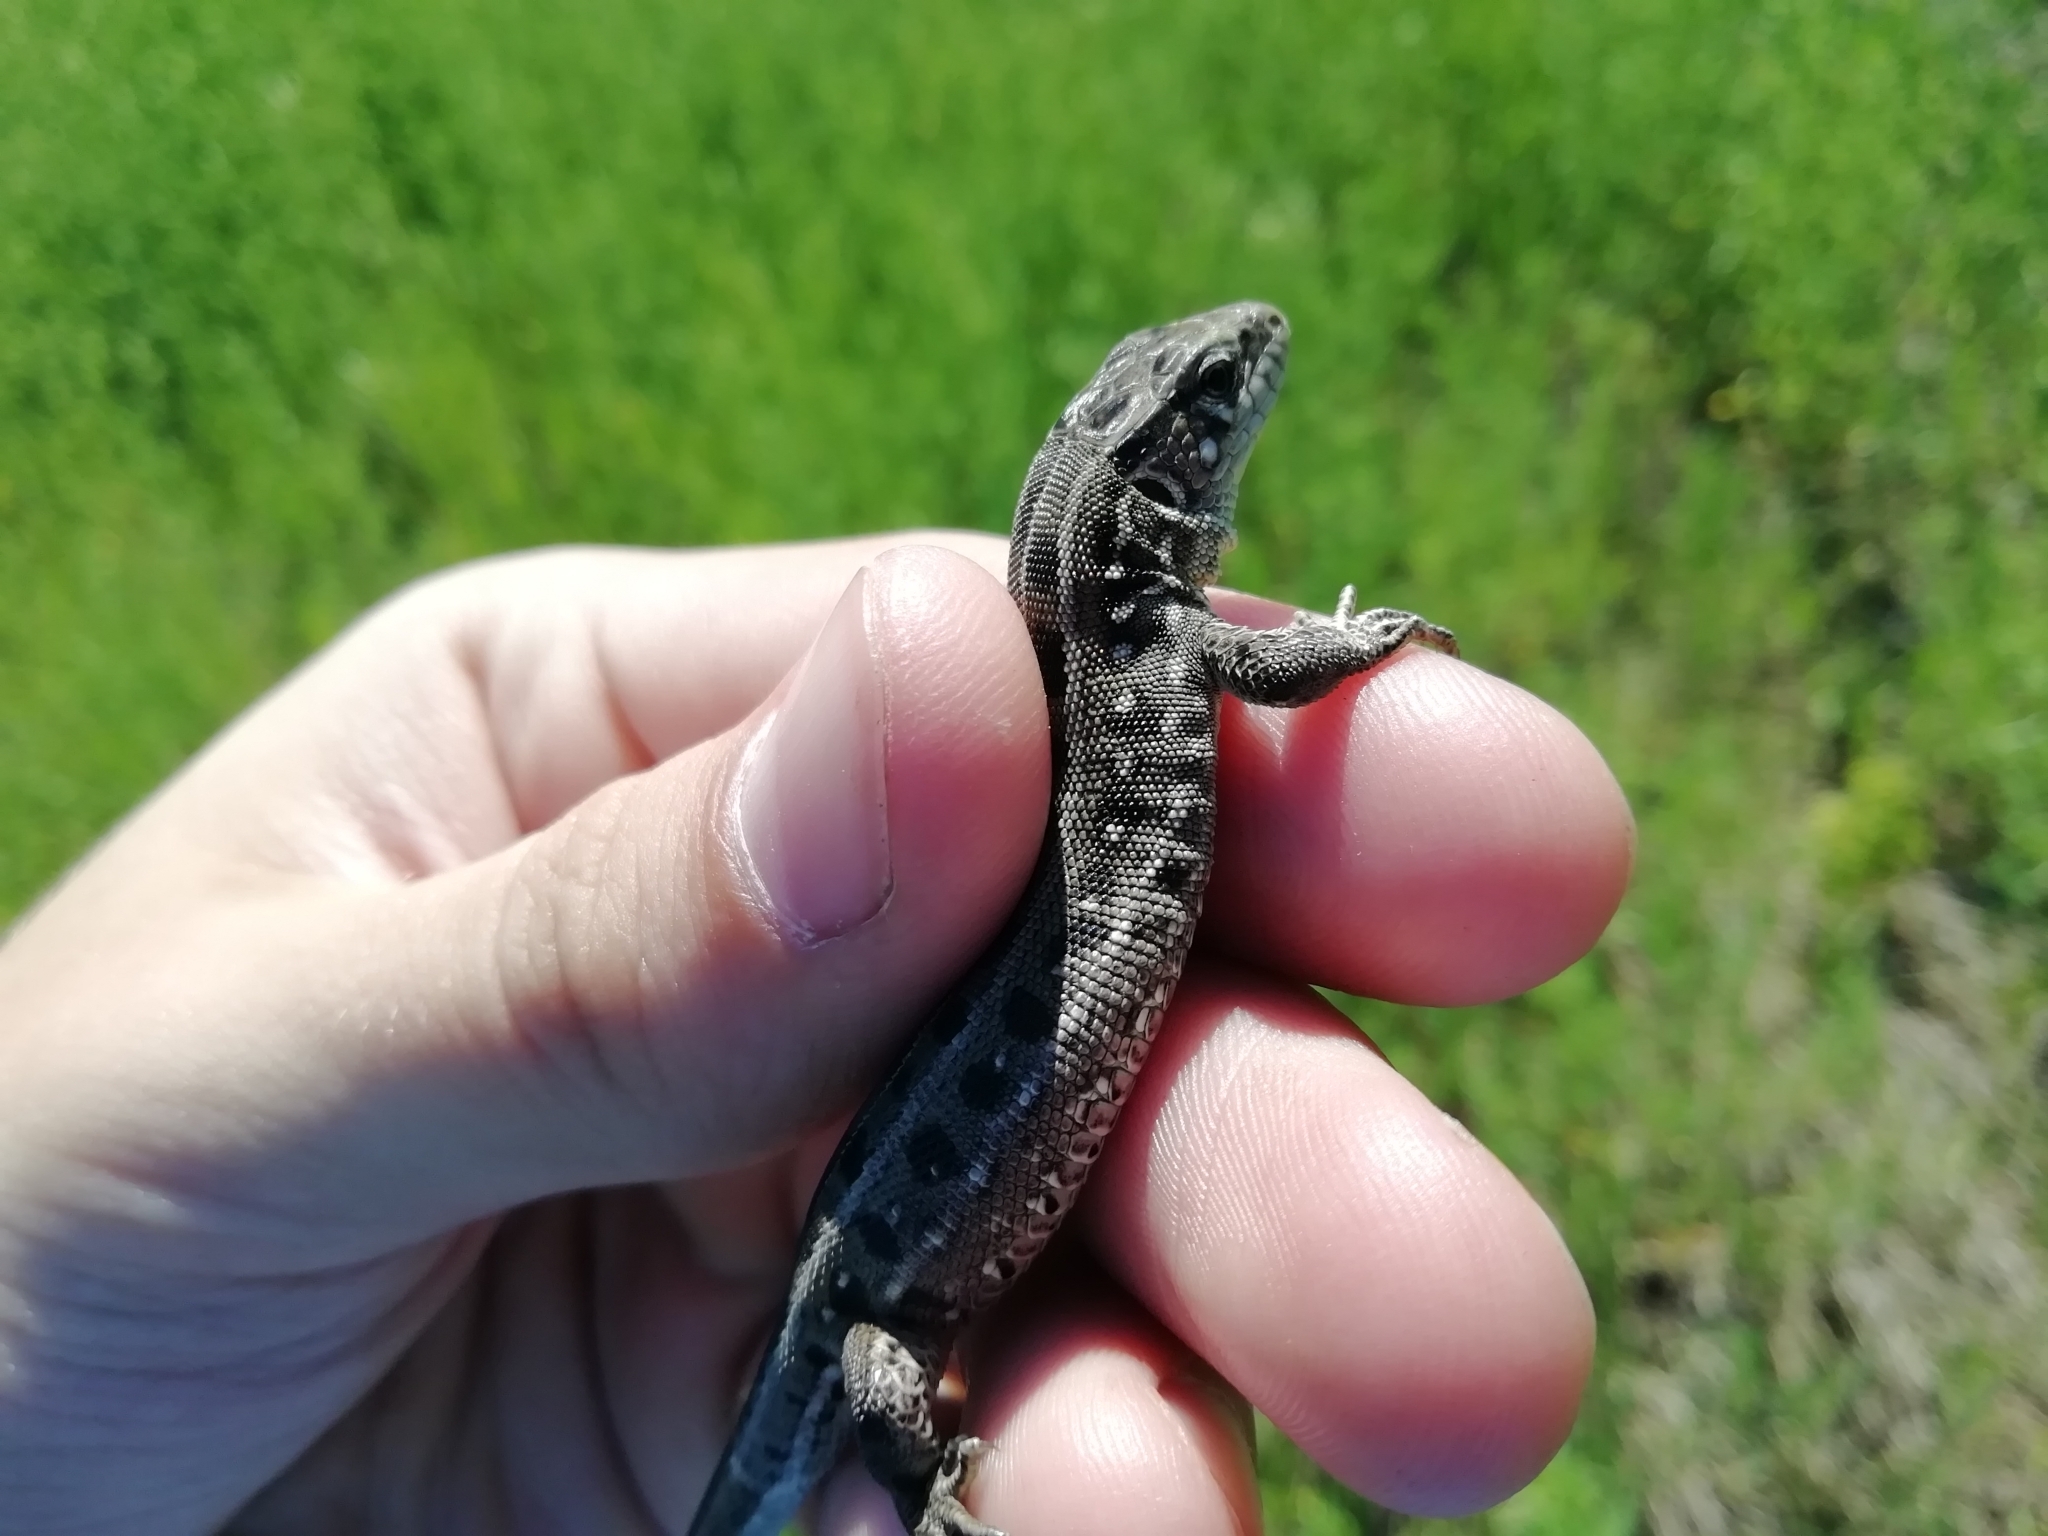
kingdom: Animalia
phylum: Chordata
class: Squamata
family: Lacertidae
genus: Lacerta
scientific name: Lacerta agilis
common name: Sand lizard
